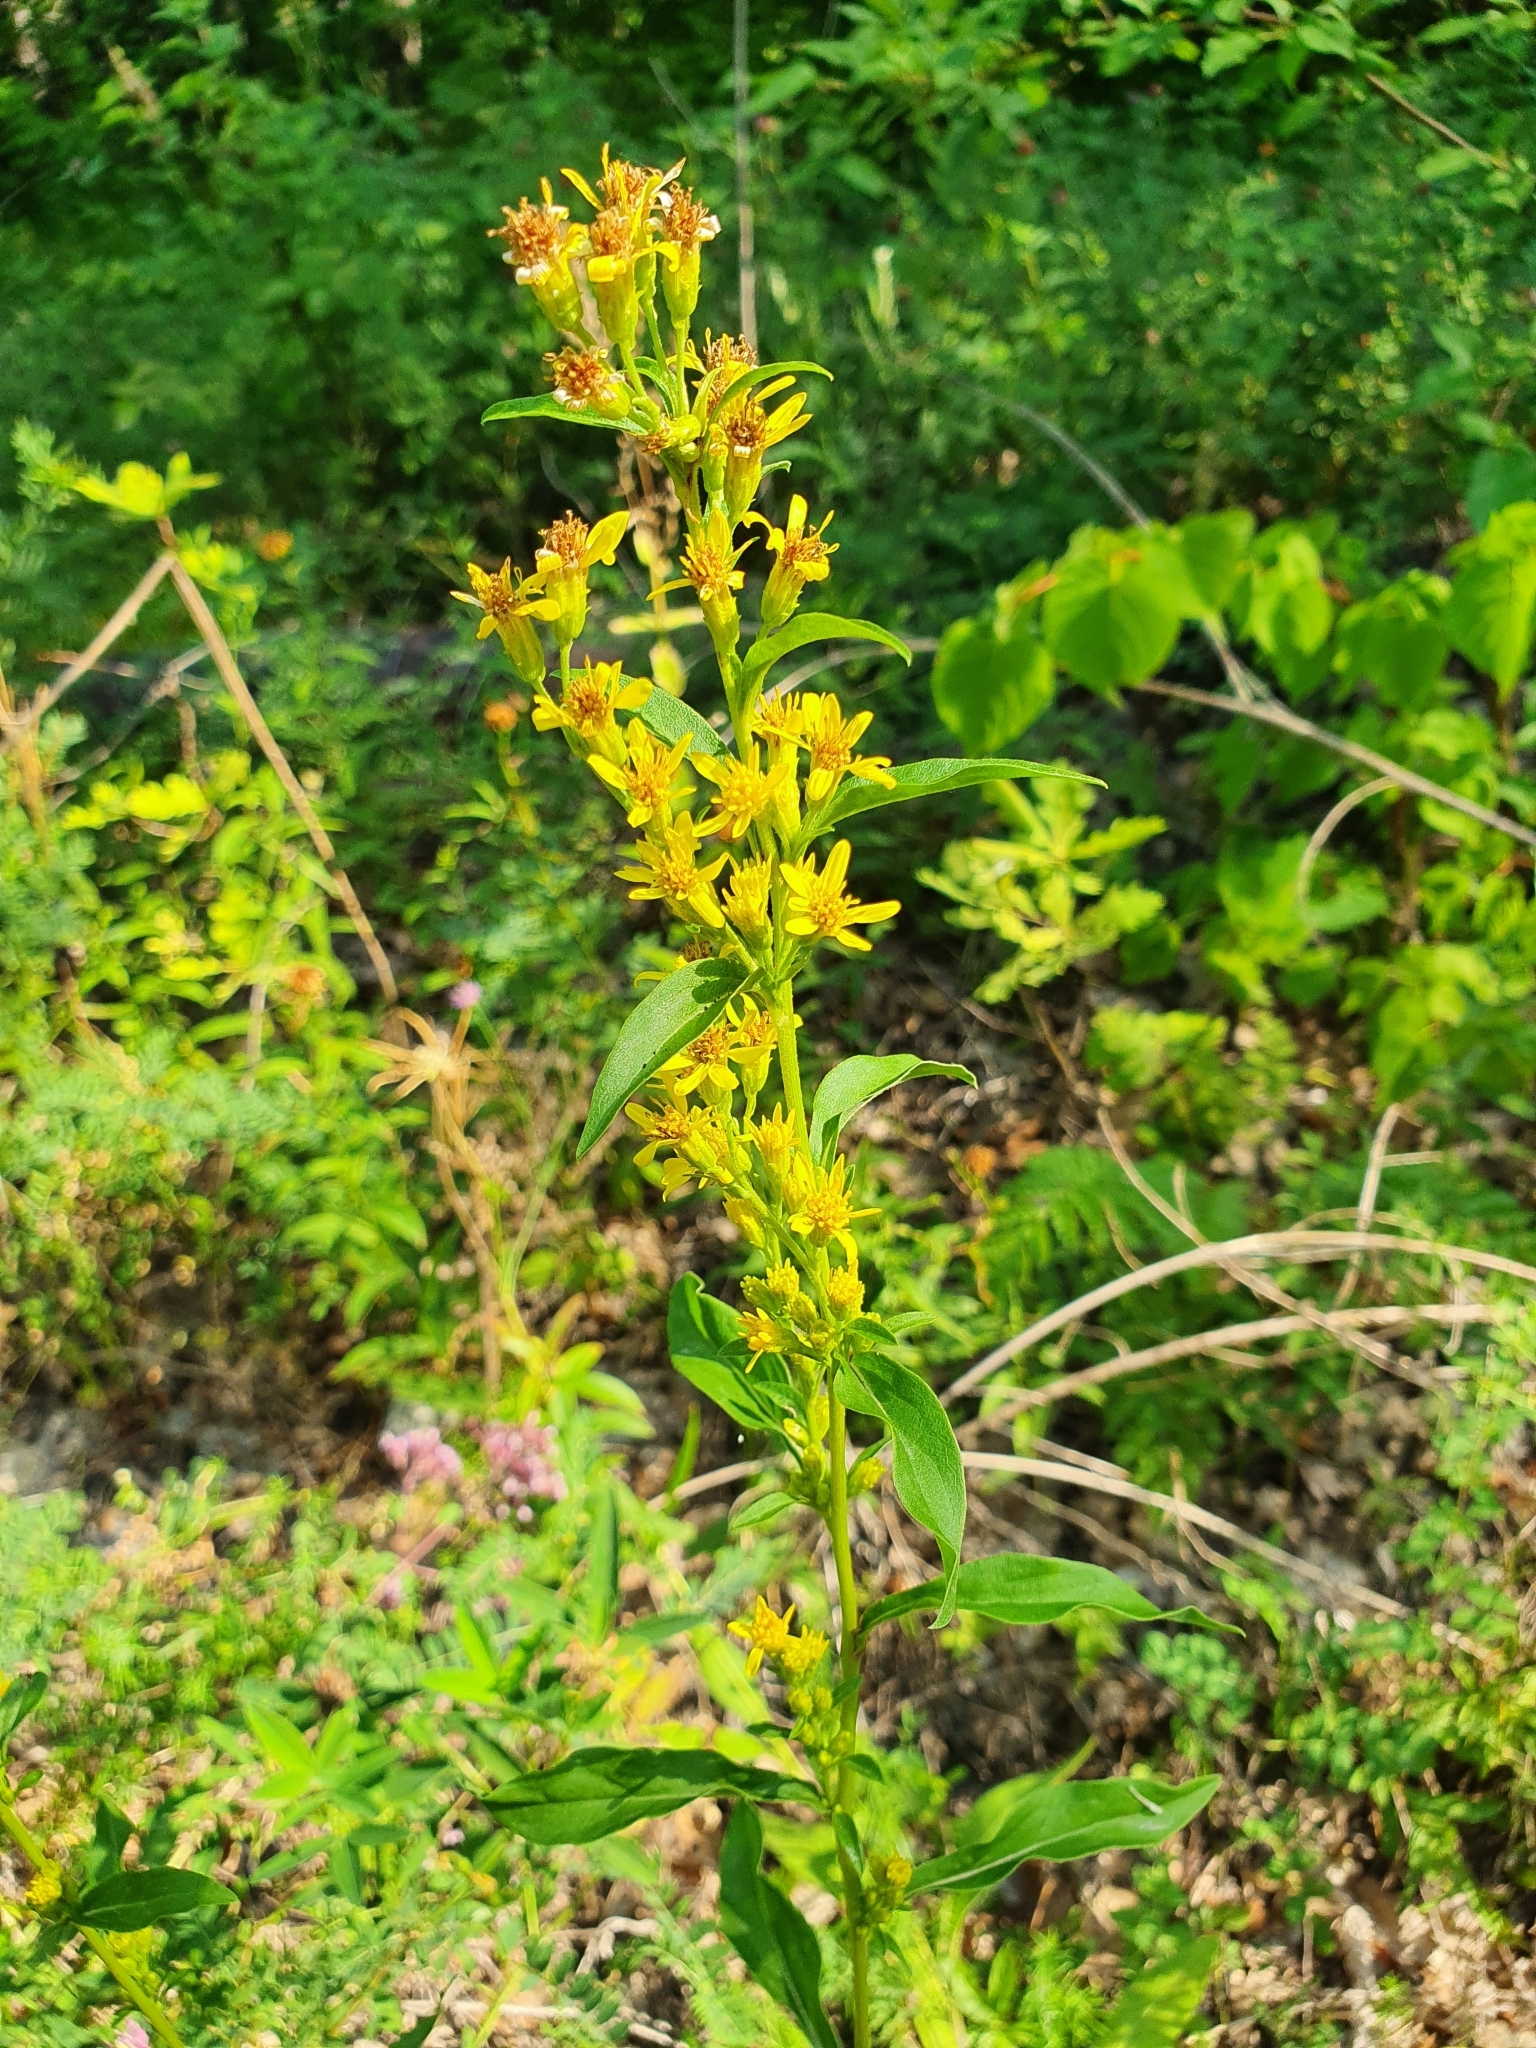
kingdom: Plantae
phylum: Tracheophyta
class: Magnoliopsida
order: Asterales
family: Asteraceae
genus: Solidago
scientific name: Solidago virgaurea
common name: Goldenrod
